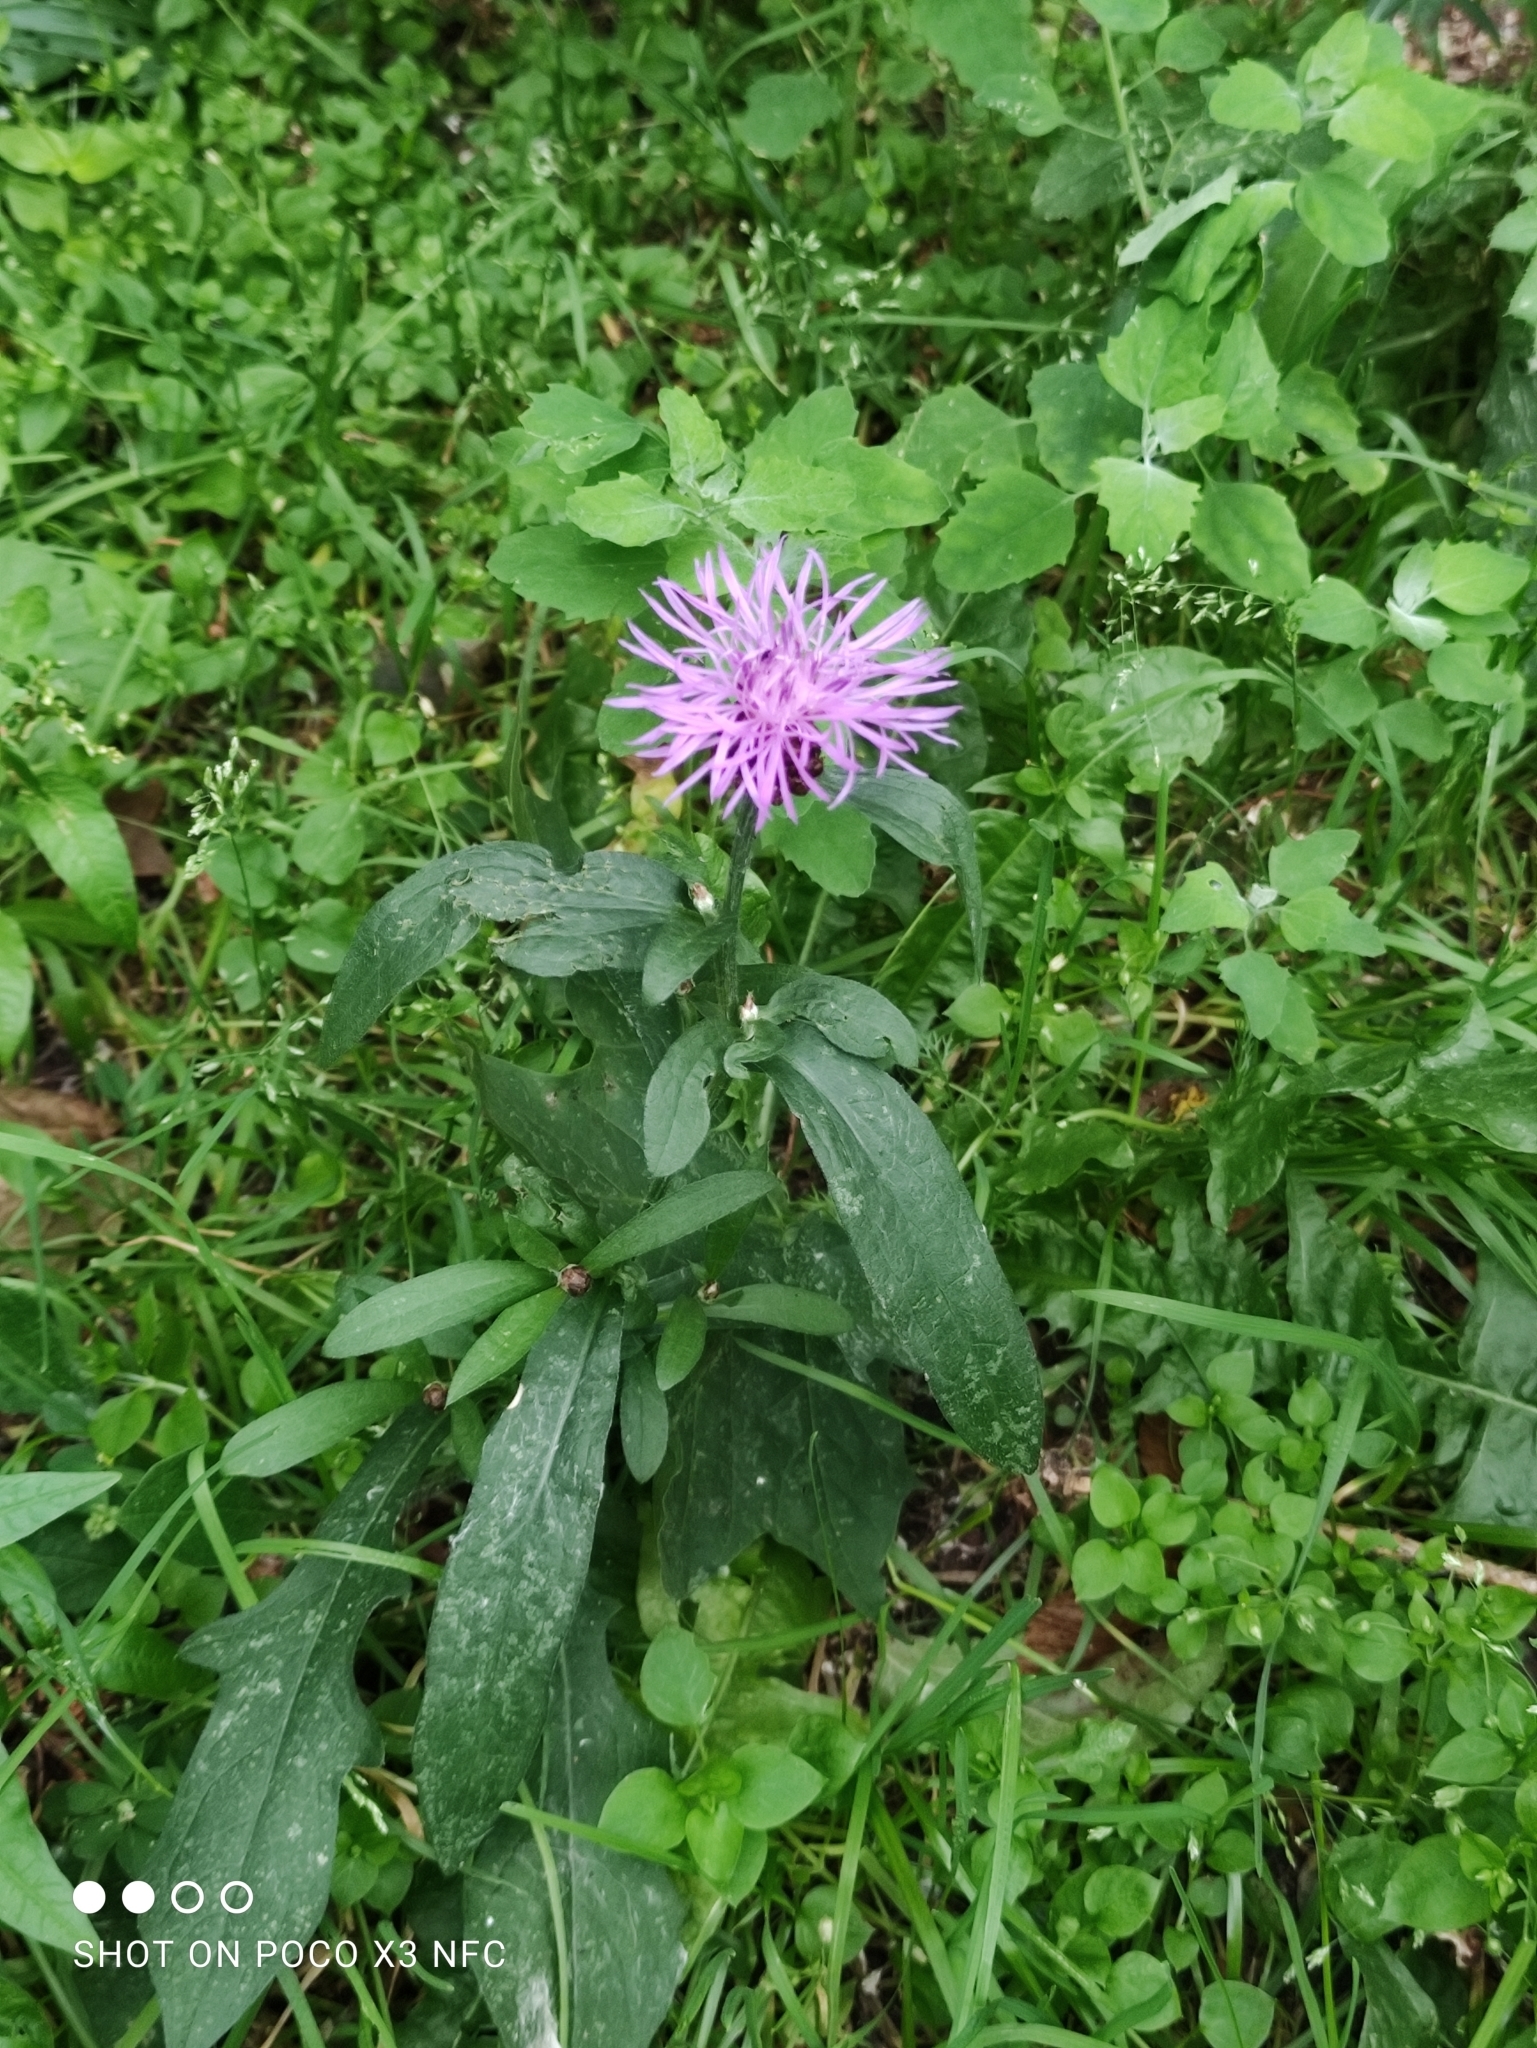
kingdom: Plantae
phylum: Tracheophyta
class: Magnoliopsida
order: Asterales
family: Asteraceae
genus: Centaurea
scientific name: Centaurea jacea
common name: Brown knapweed
